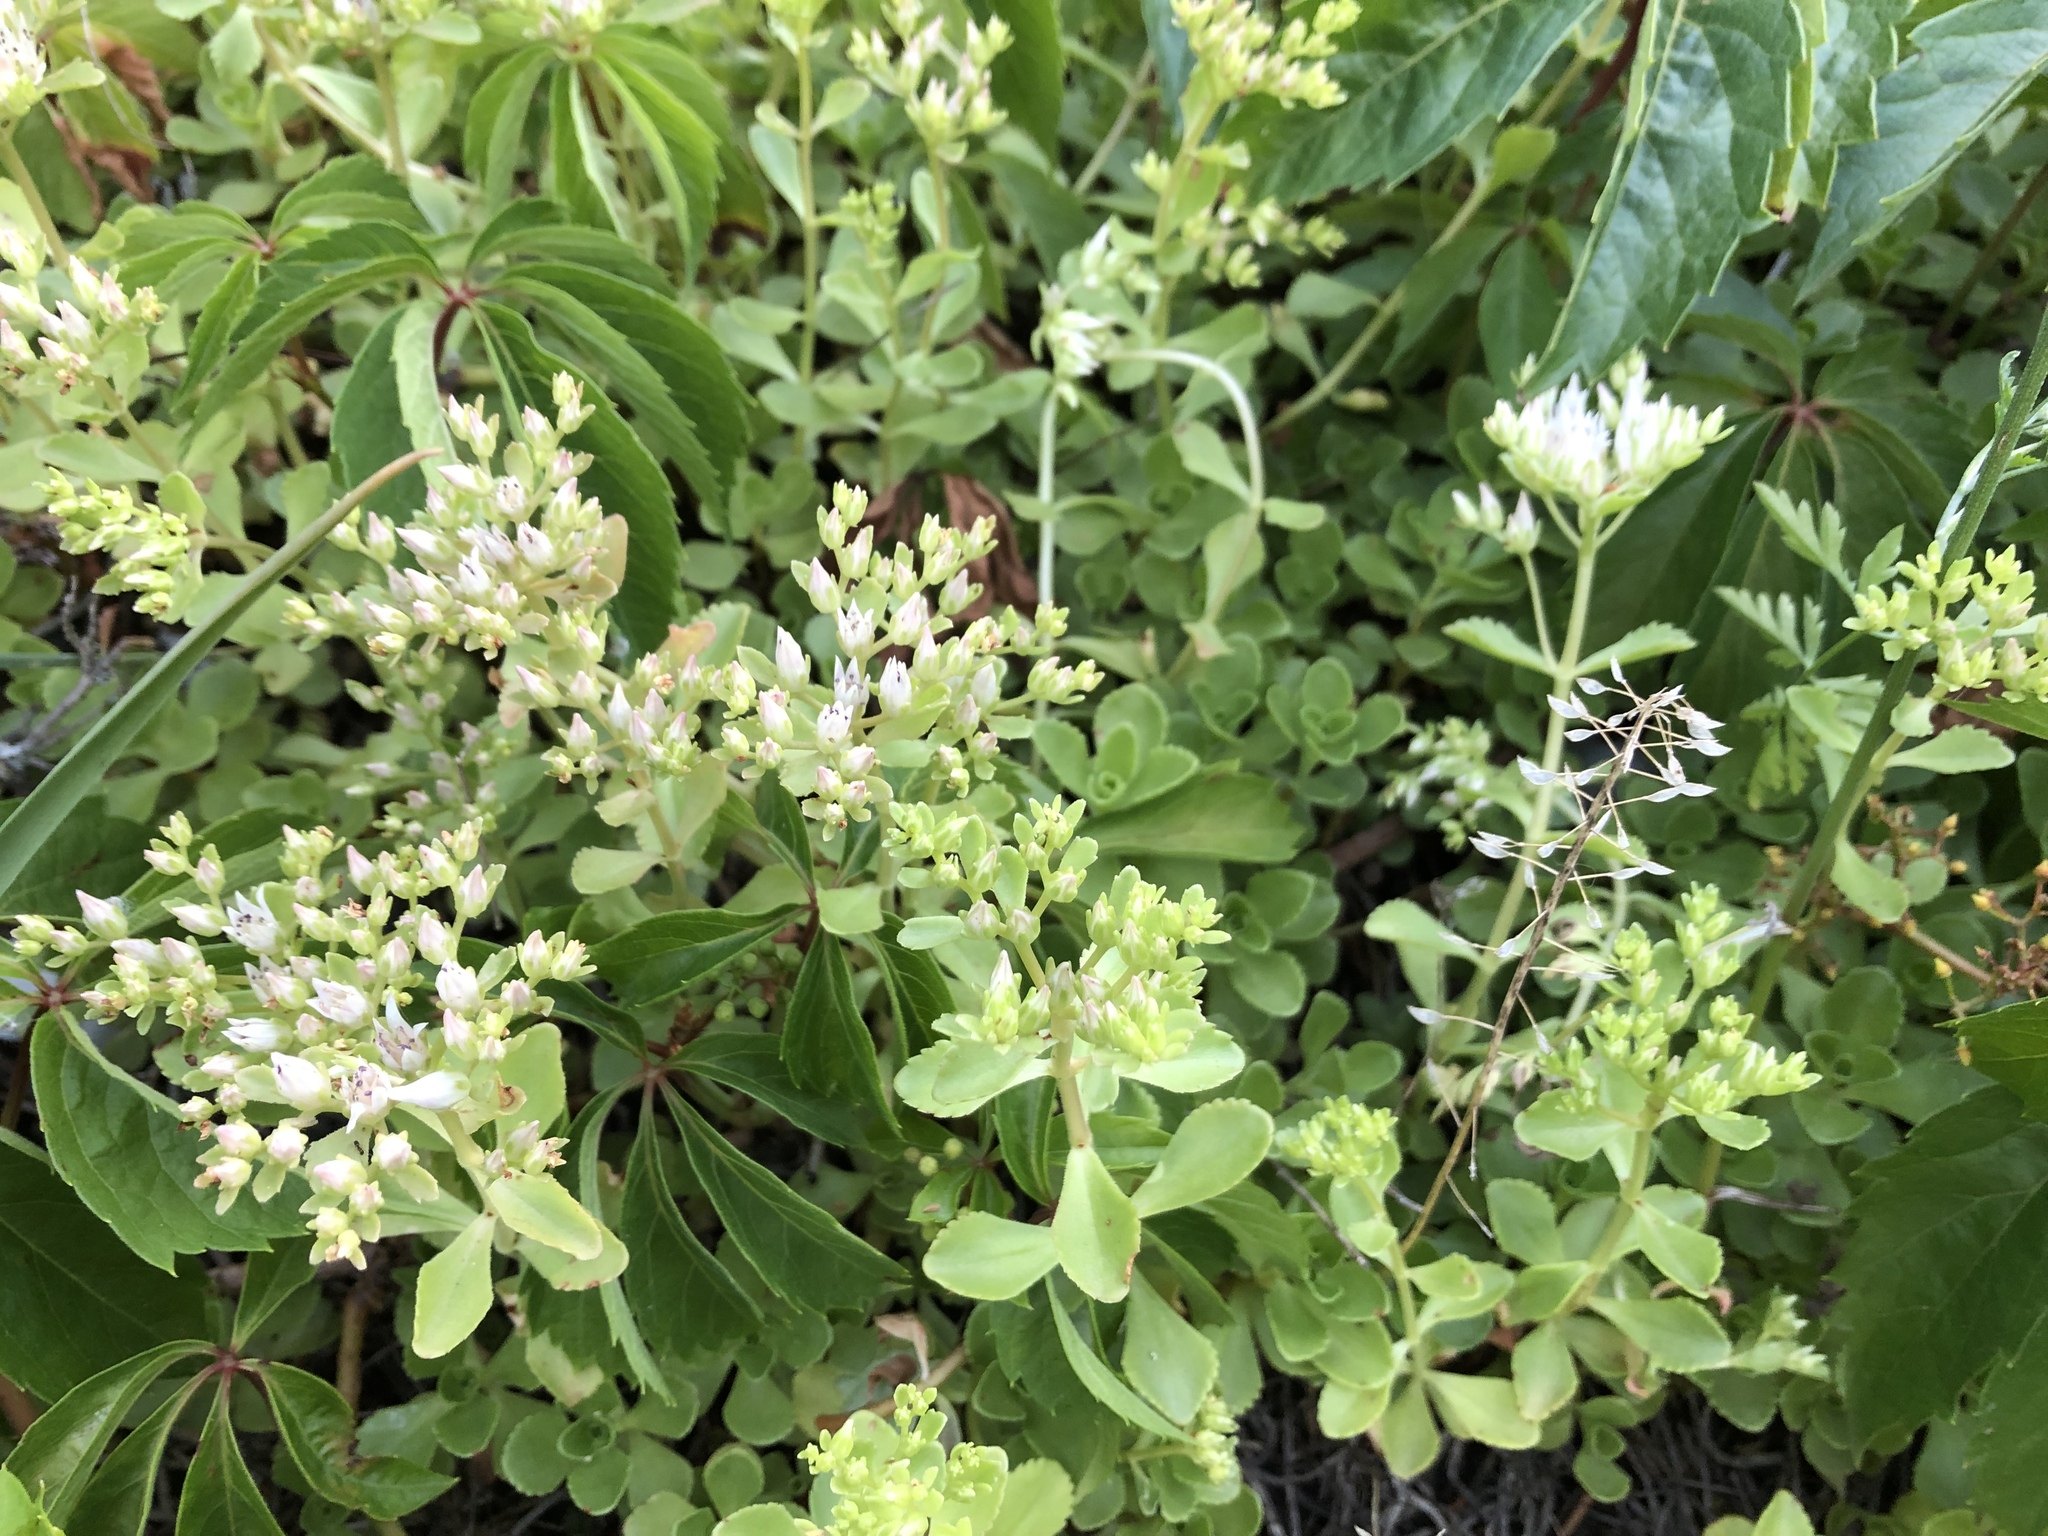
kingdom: Plantae
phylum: Tracheophyta
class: Magnoliopsida
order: Saxifragales
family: Crassulaceae
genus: Phedimus
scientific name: Phedimus spurius
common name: Caucasian stonecrop
